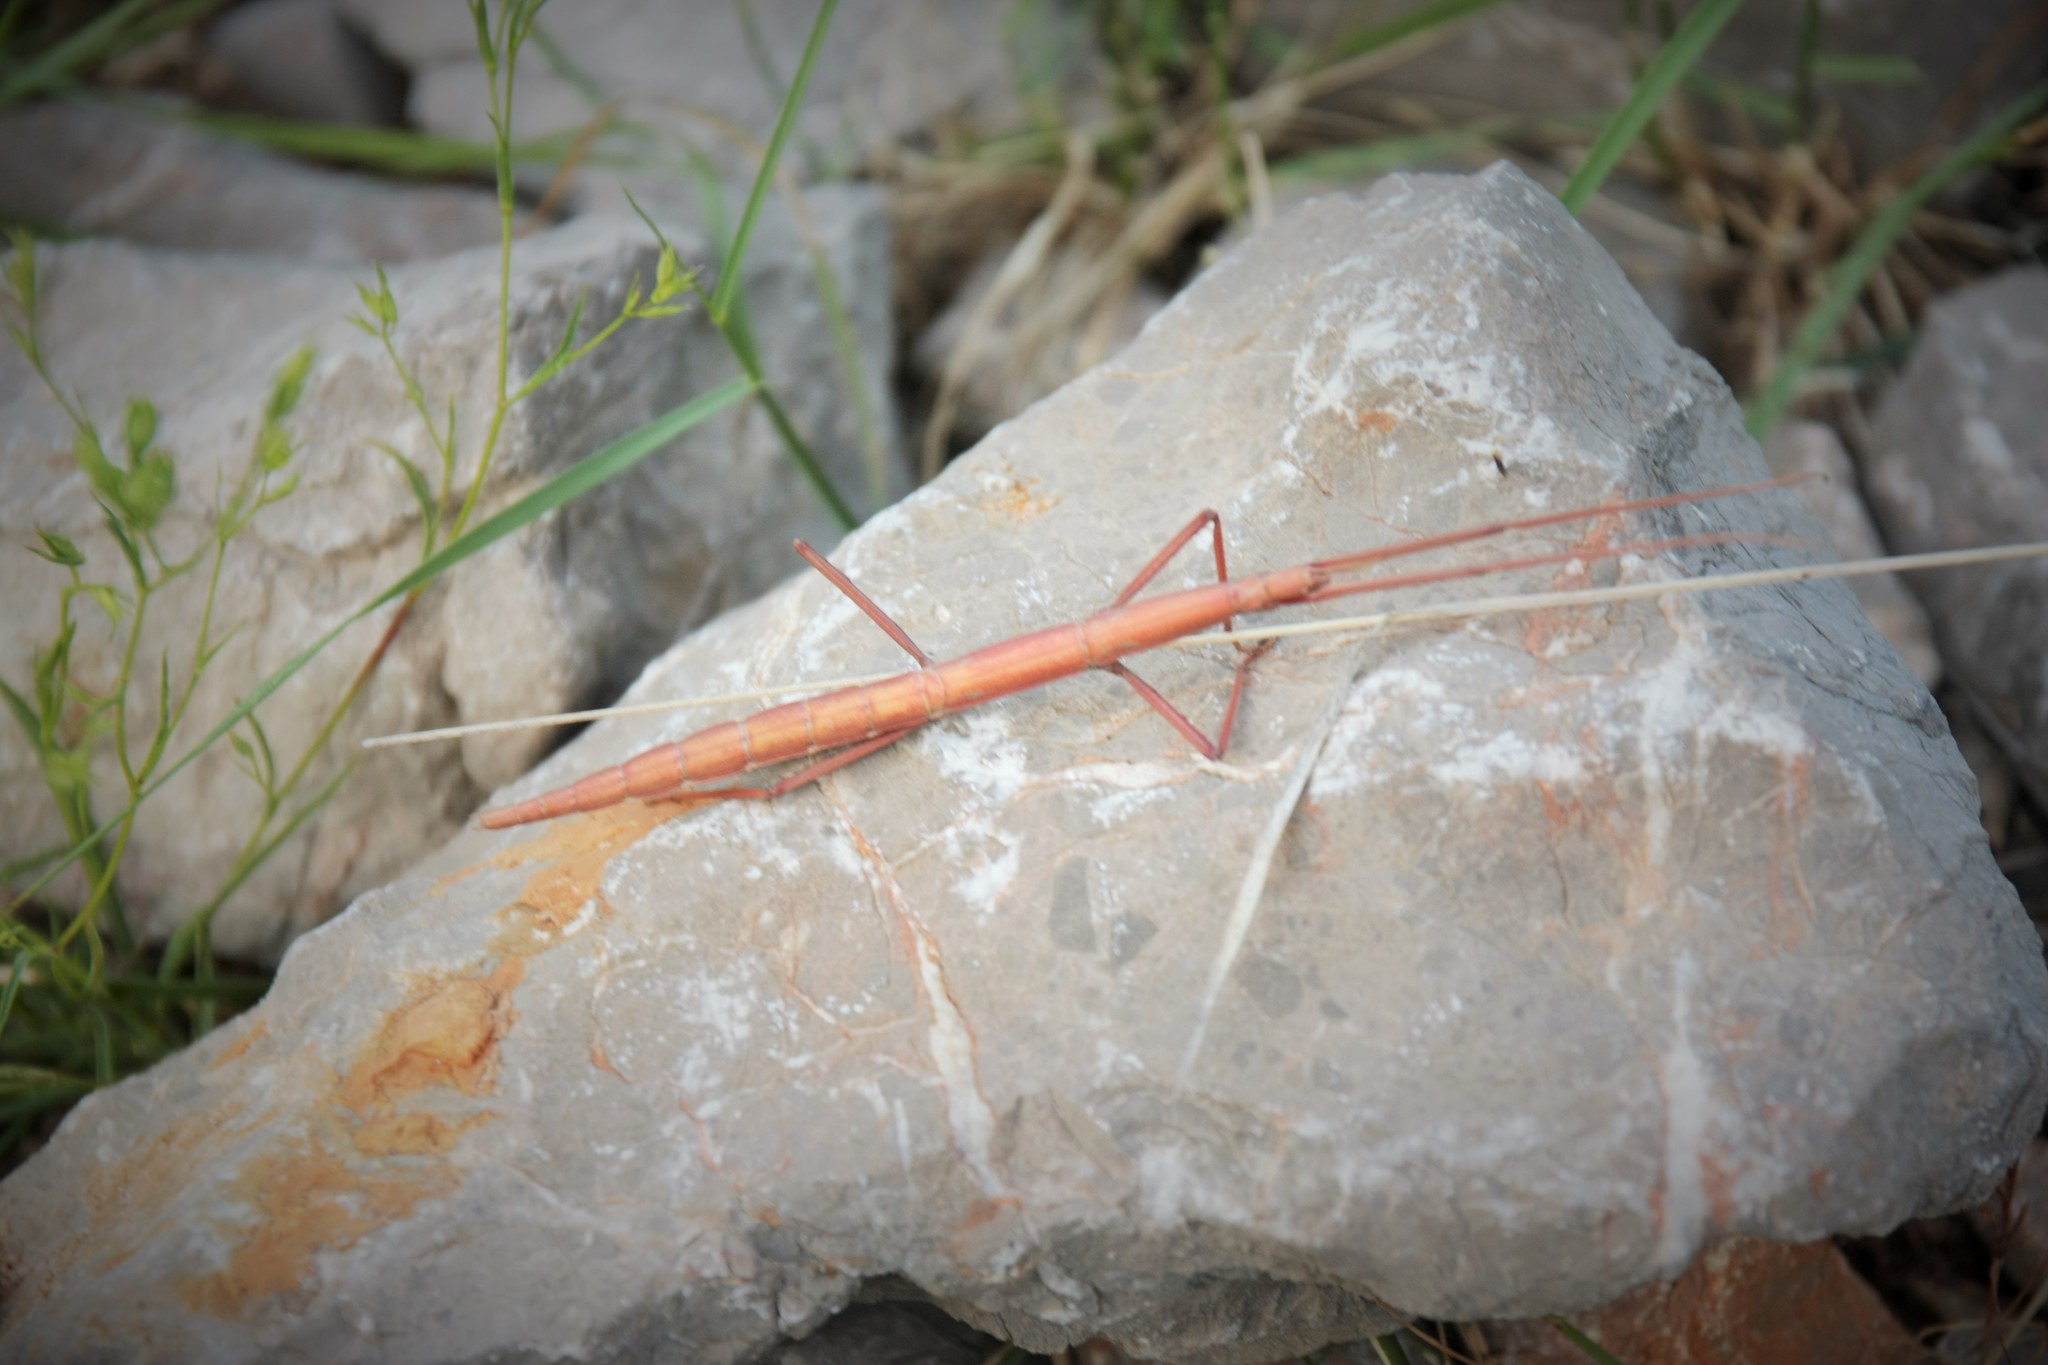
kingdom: Animalia
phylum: Arthropoda
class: Insecta
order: Phasmida
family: Bacillidae
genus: Bacillus
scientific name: Bacillus rossius
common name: Corsican stick-insect
